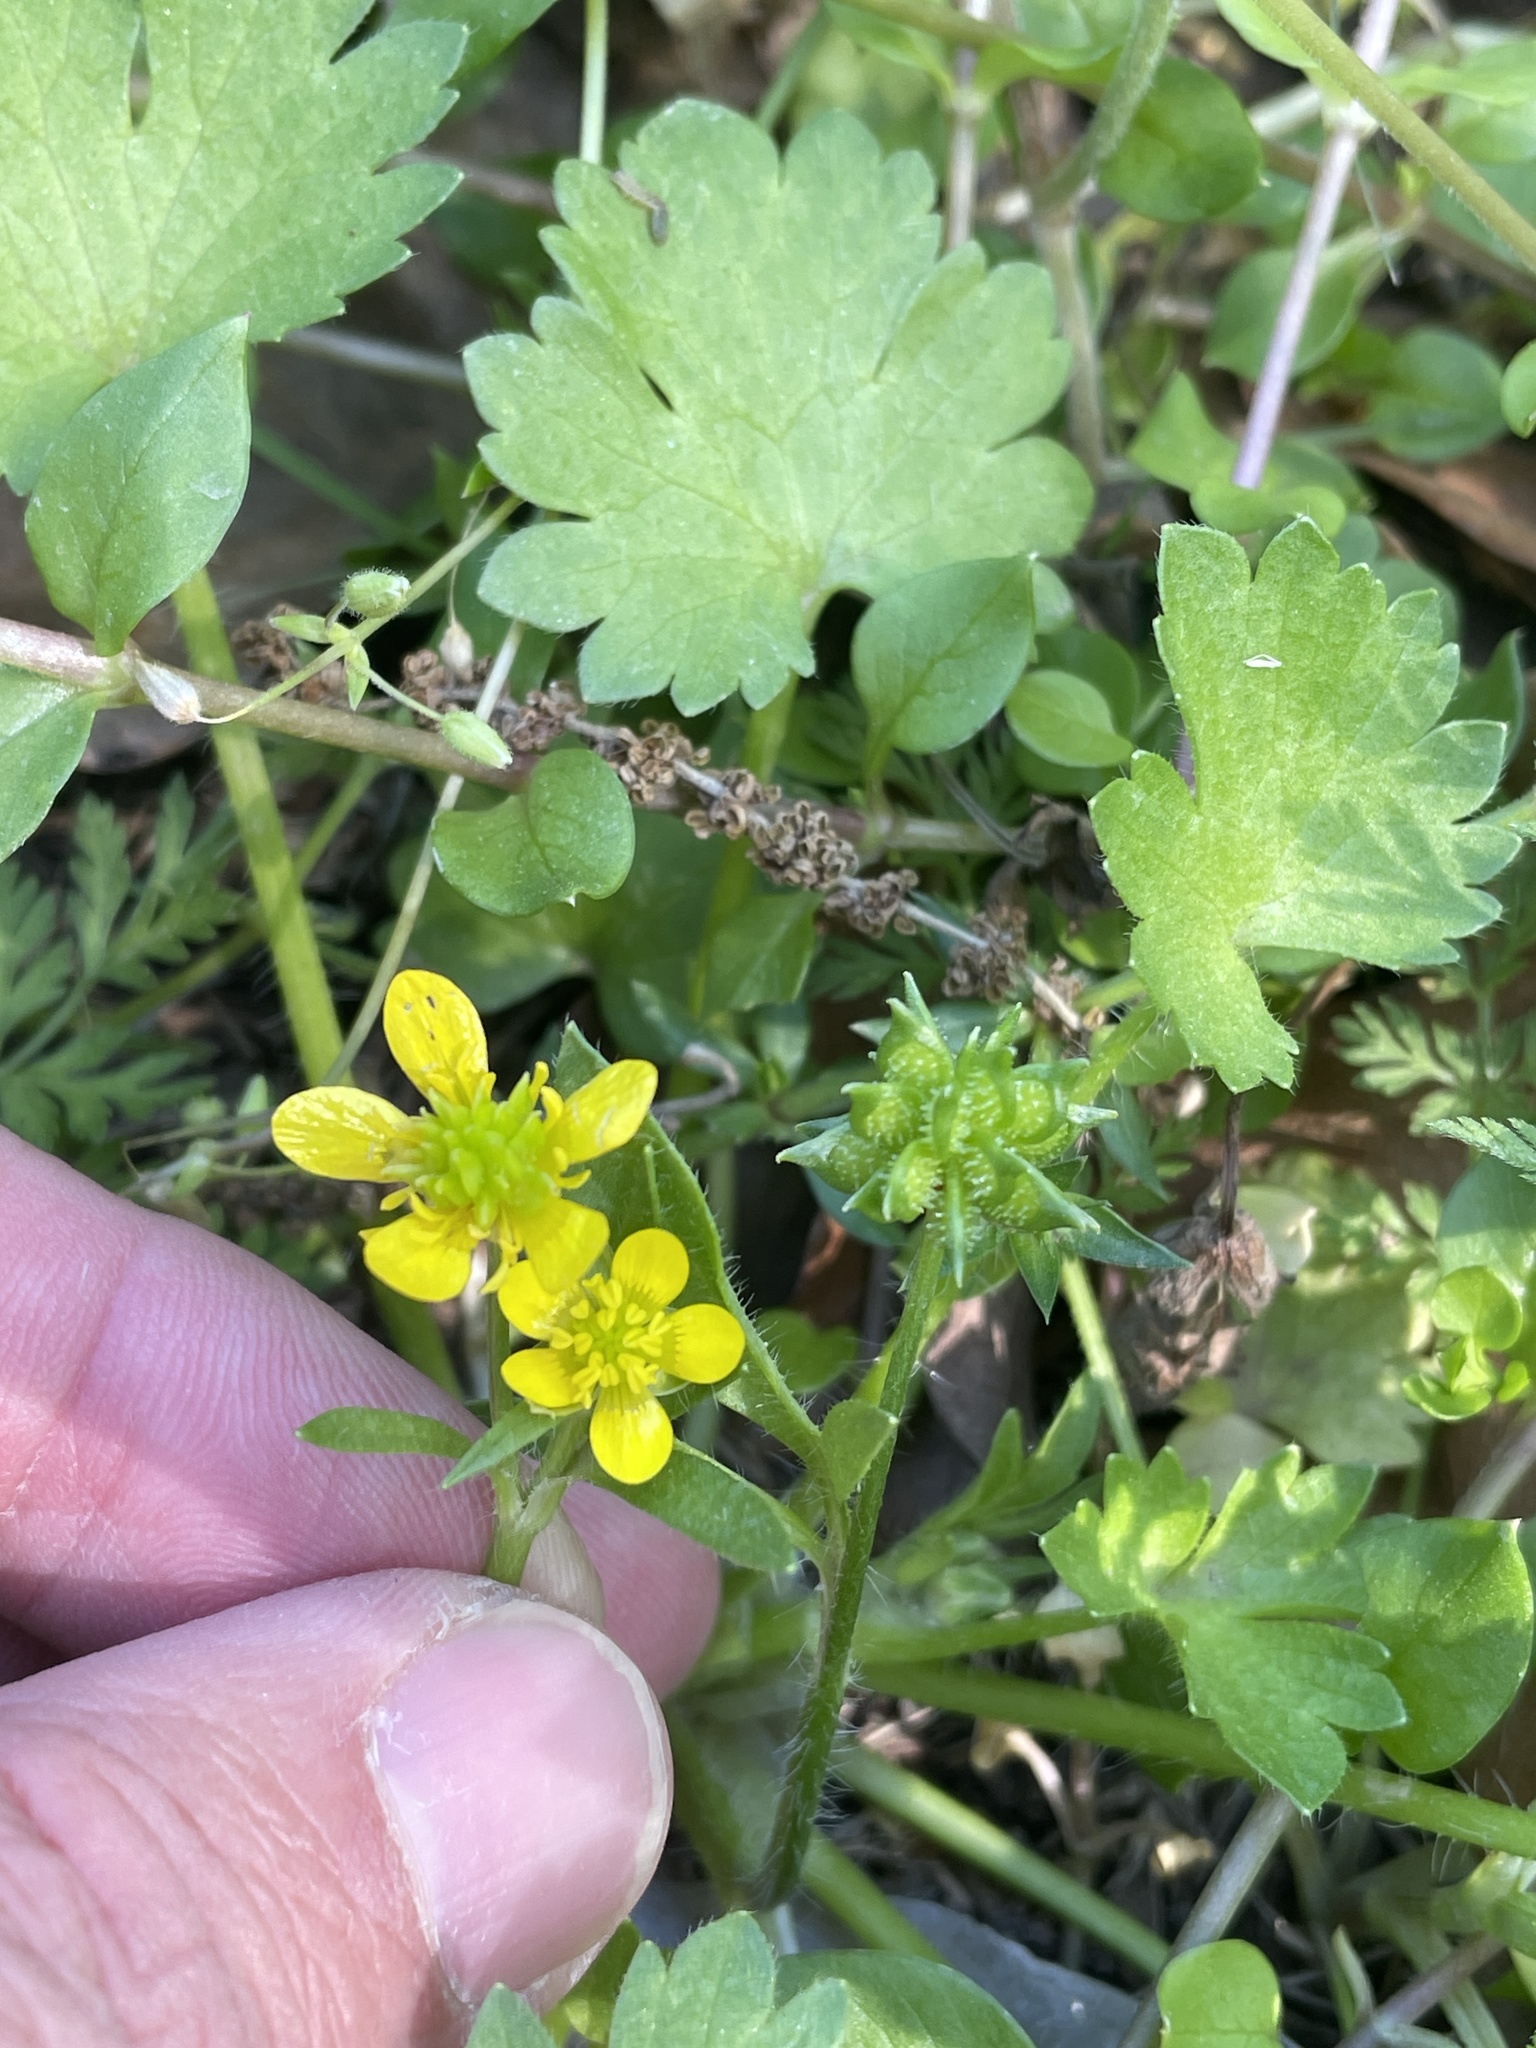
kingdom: Plantae
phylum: Tracheophyta
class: Magnoliopsida
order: Ranunculales
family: Ranunculaceae
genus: Ranunculus
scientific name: Ranunculus muricatus
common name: Rough-fruited buttercup
